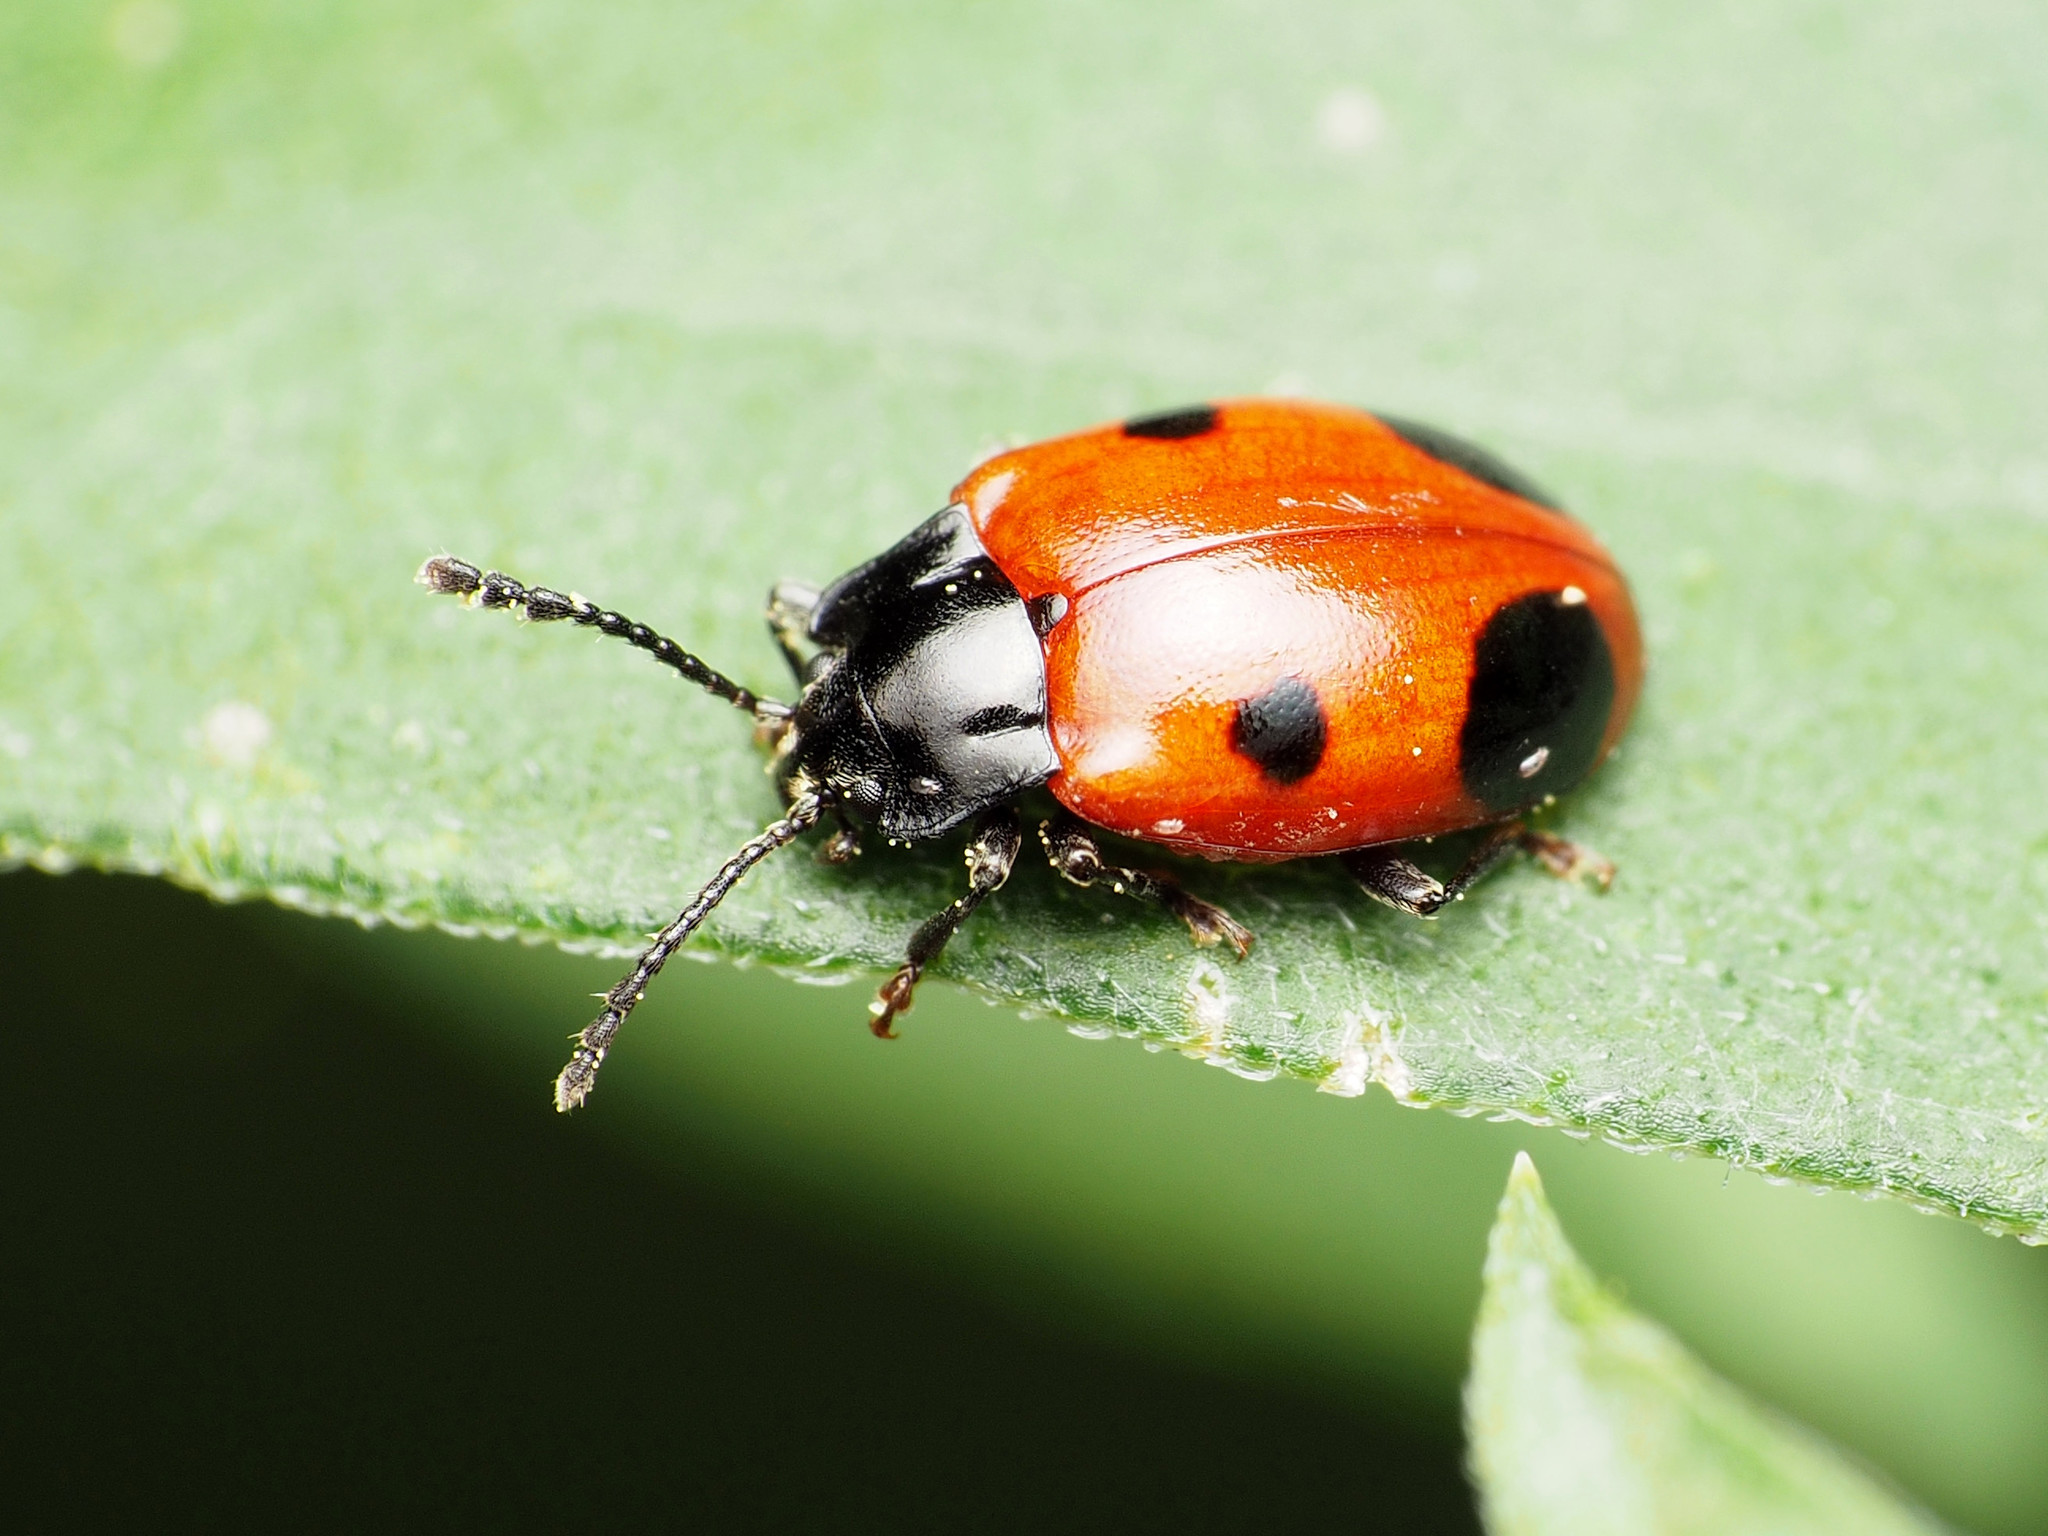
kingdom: Animalia
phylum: Arthropoda
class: Insecta
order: Coleoptera
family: Endomychidae
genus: Endomychus
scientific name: Endomychus biguttatus
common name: Handsome fungus beetle
